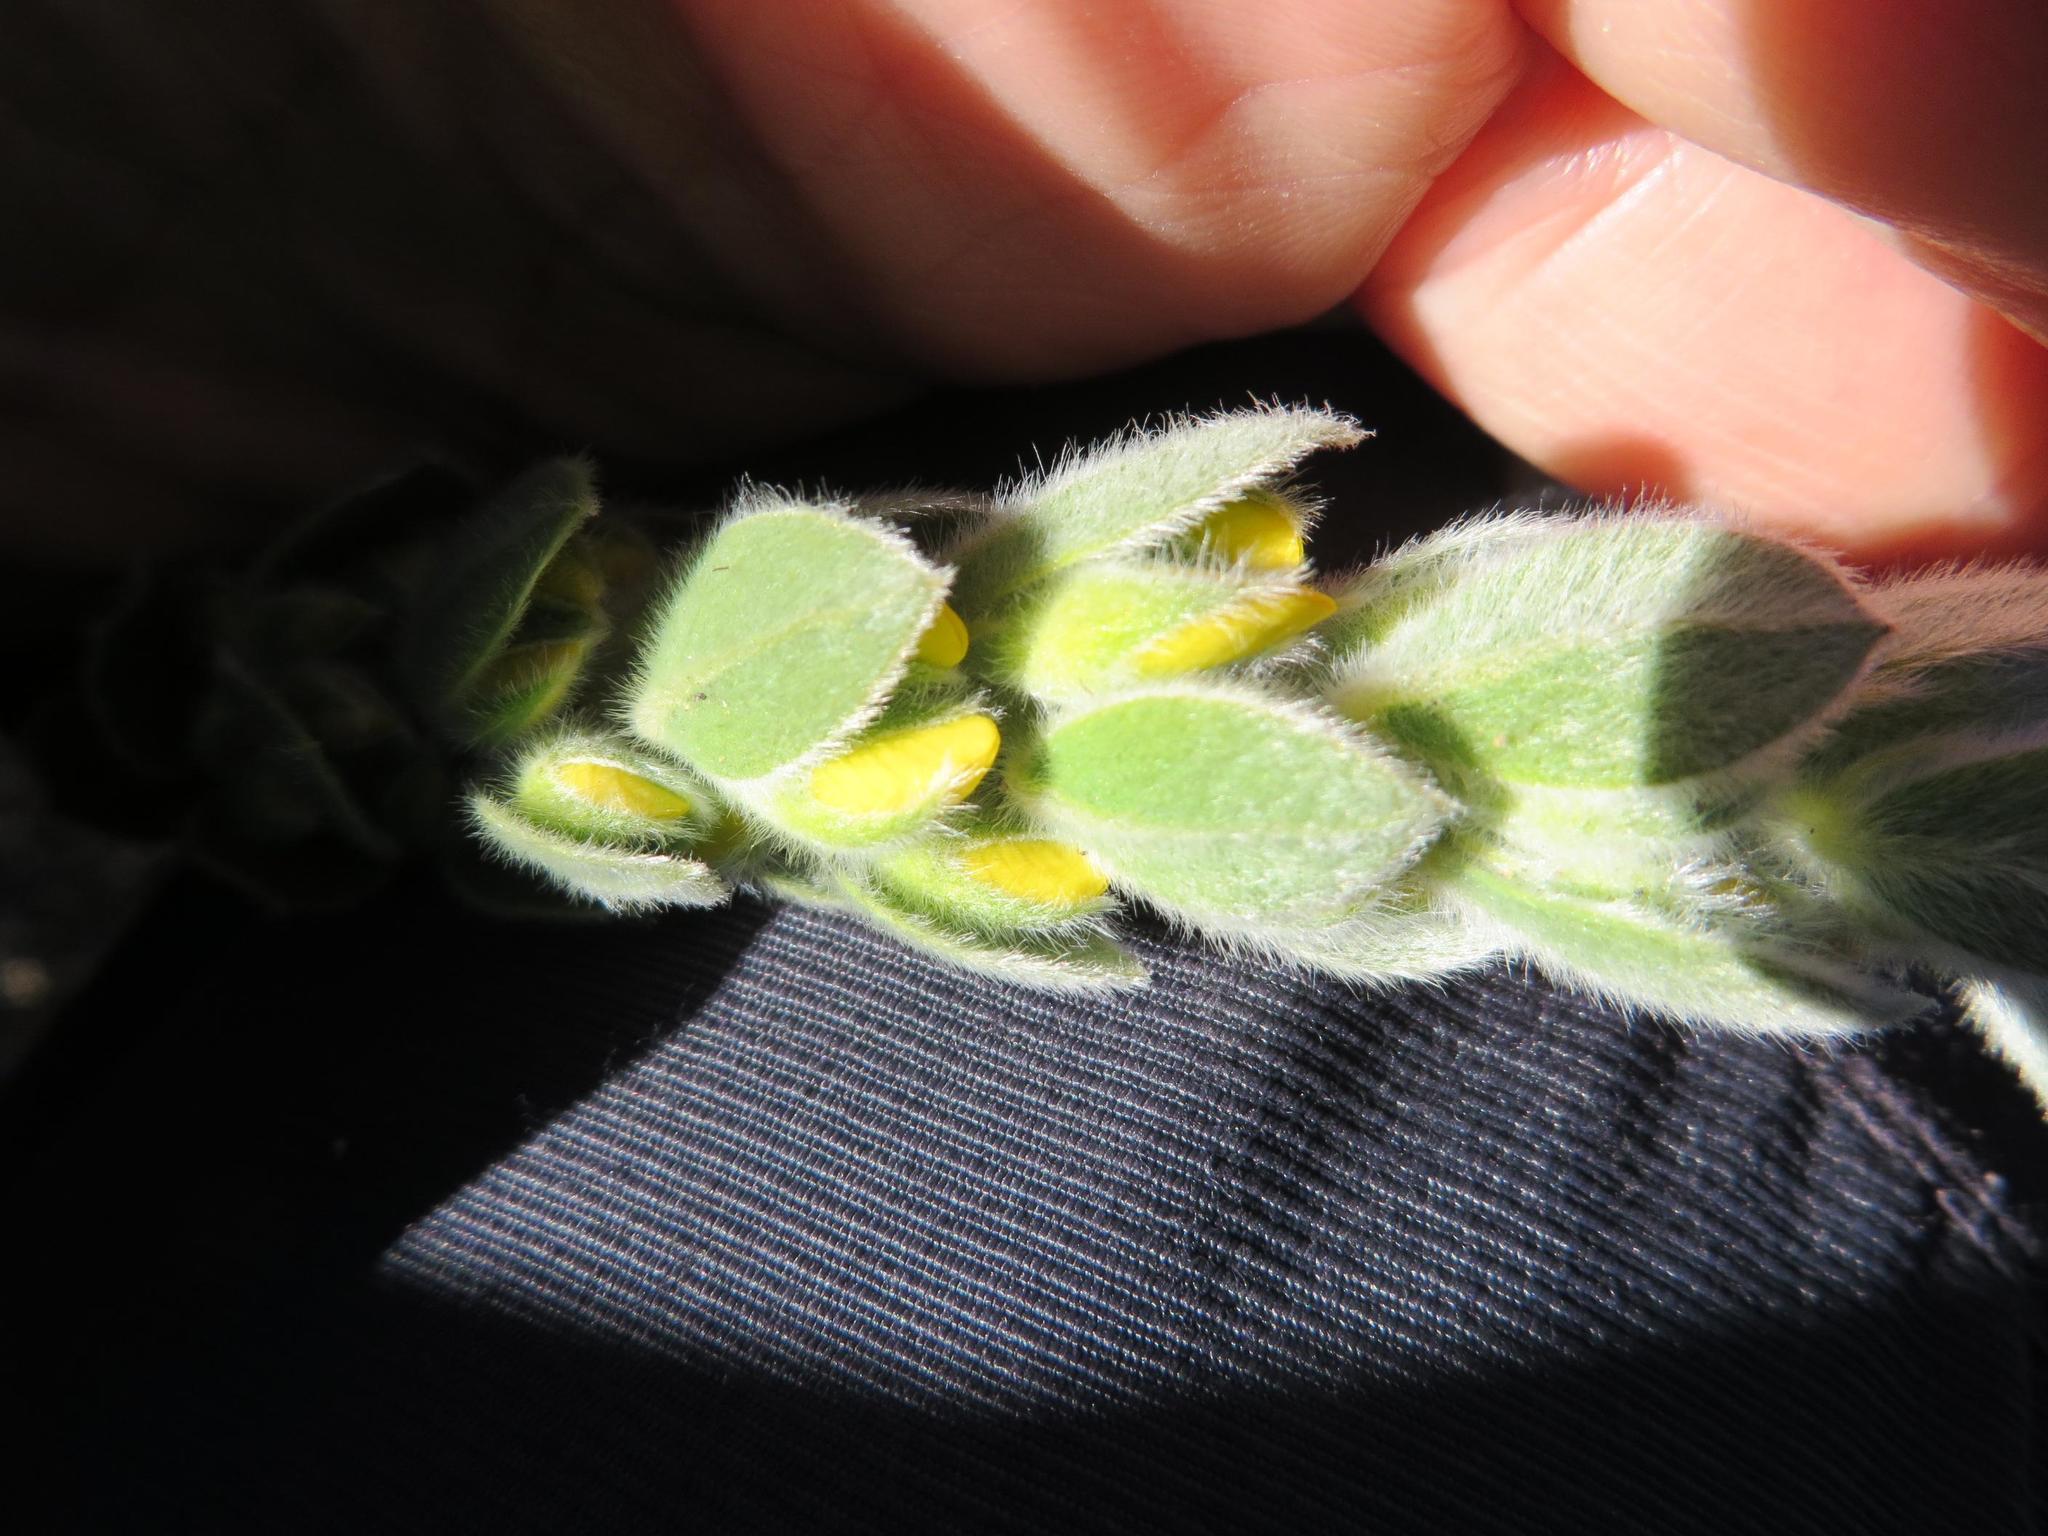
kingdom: Plantae
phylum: Tracheophyta
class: Magnoliopsida
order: Fabales
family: Fabaceae
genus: Xiphotheca
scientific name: Xiphotheca tecta
